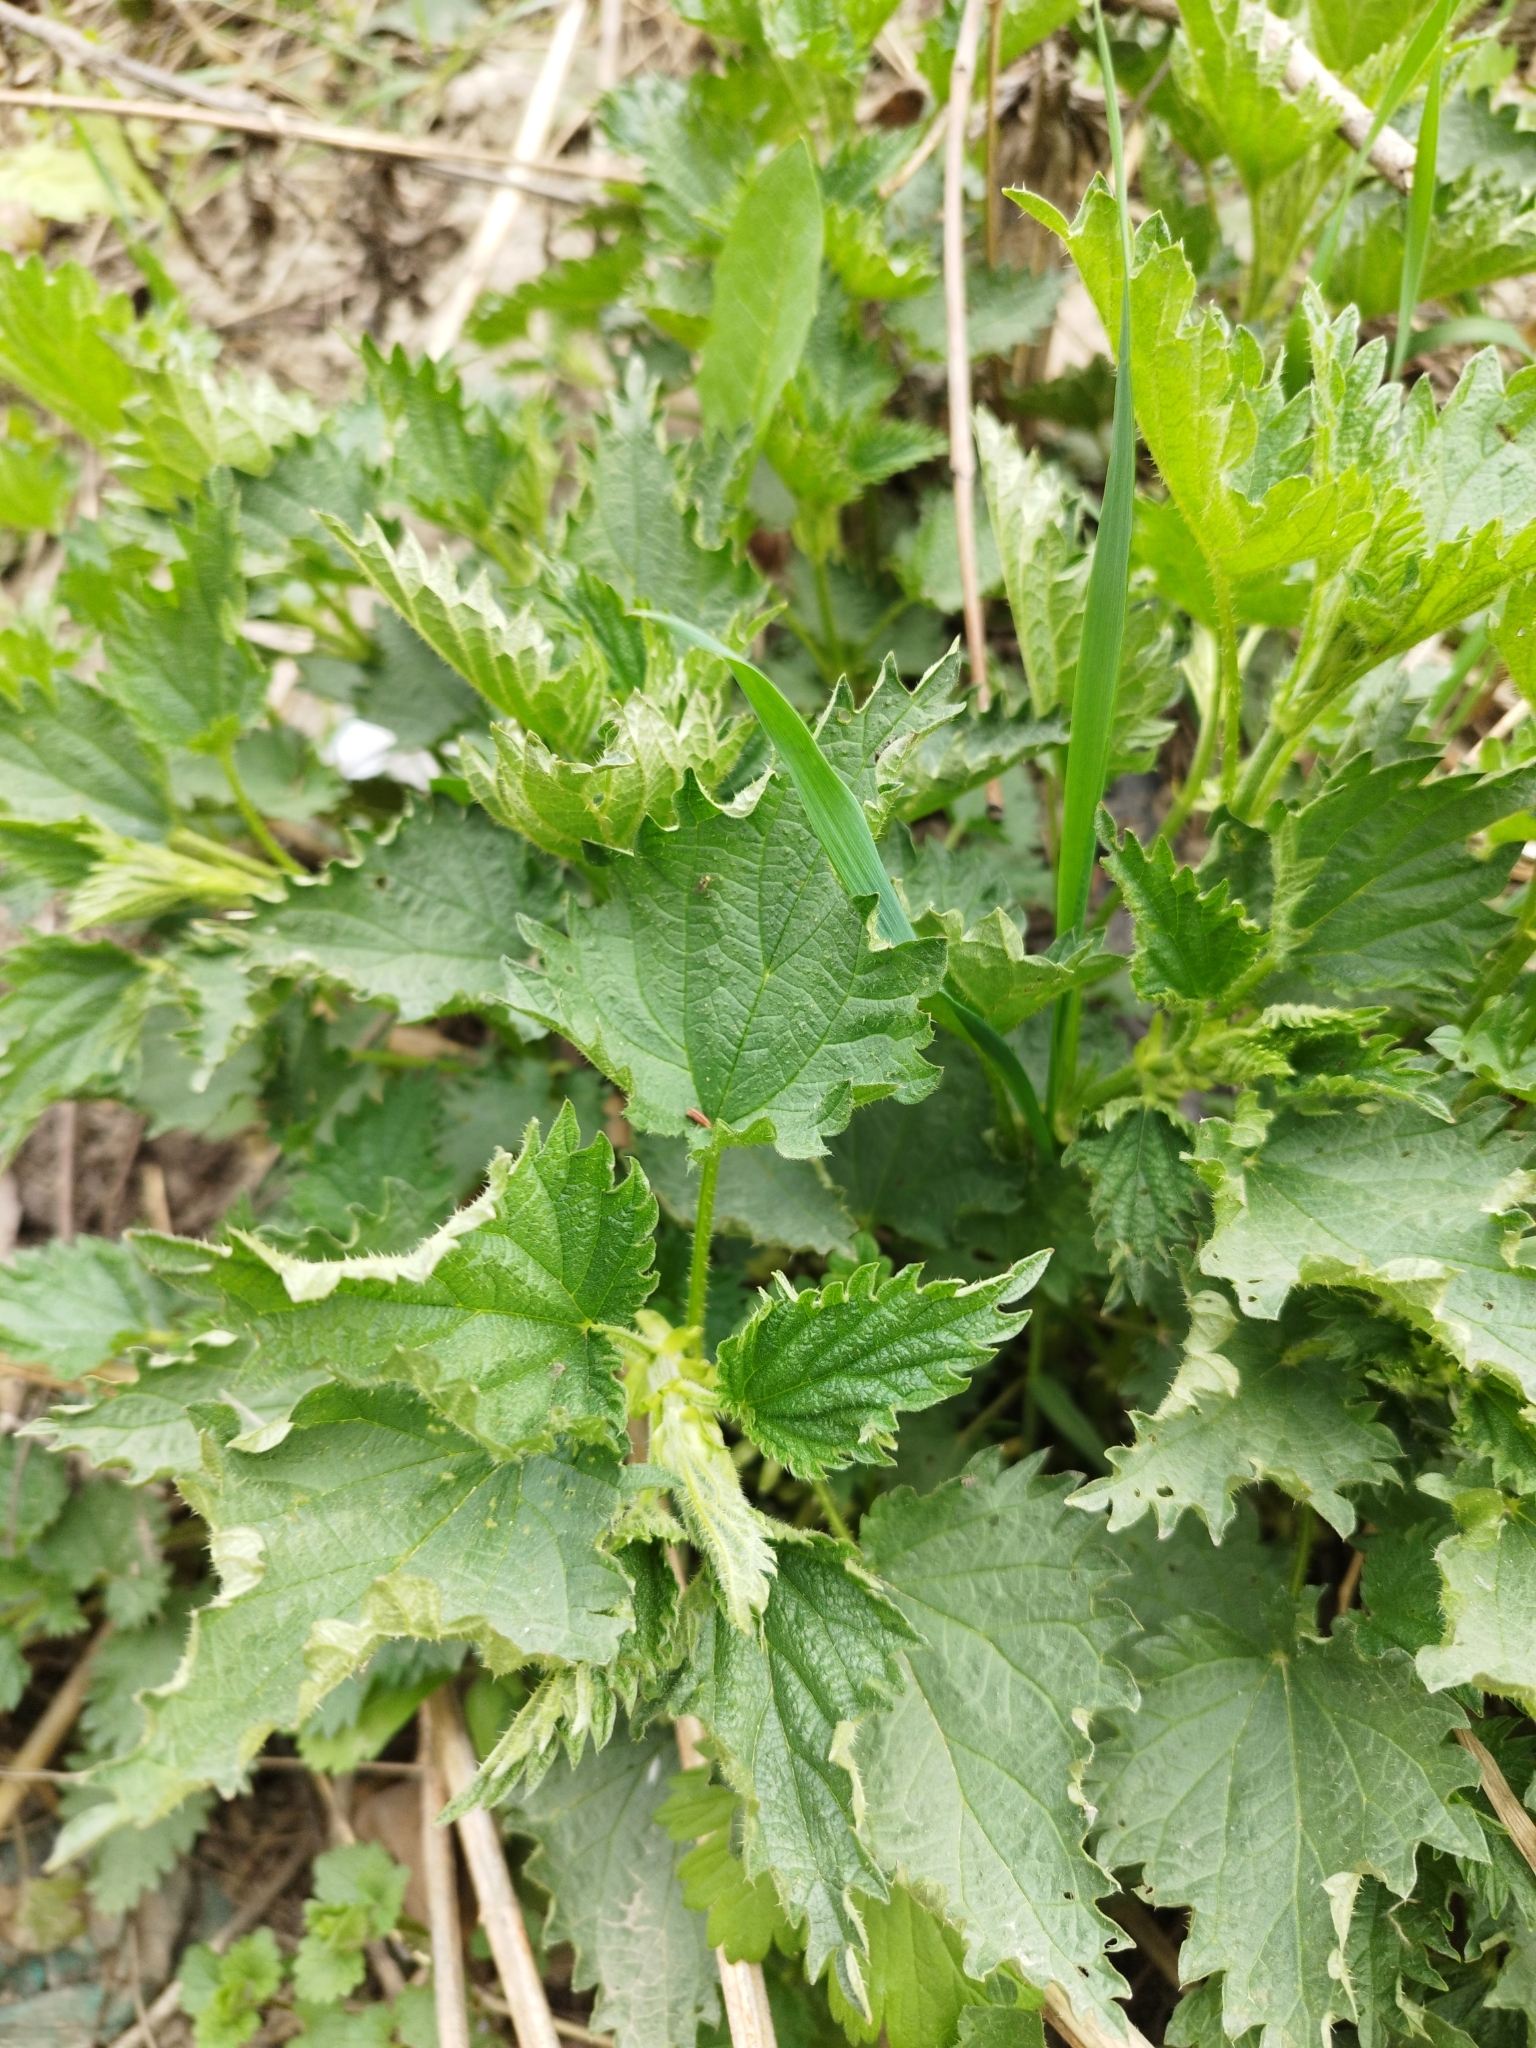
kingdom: Plantae
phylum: Tracheophyta
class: Magnoliopsida
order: Rosales
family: Urticaceae
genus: Urtica
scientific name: Urtica dioica
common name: Common nettle
